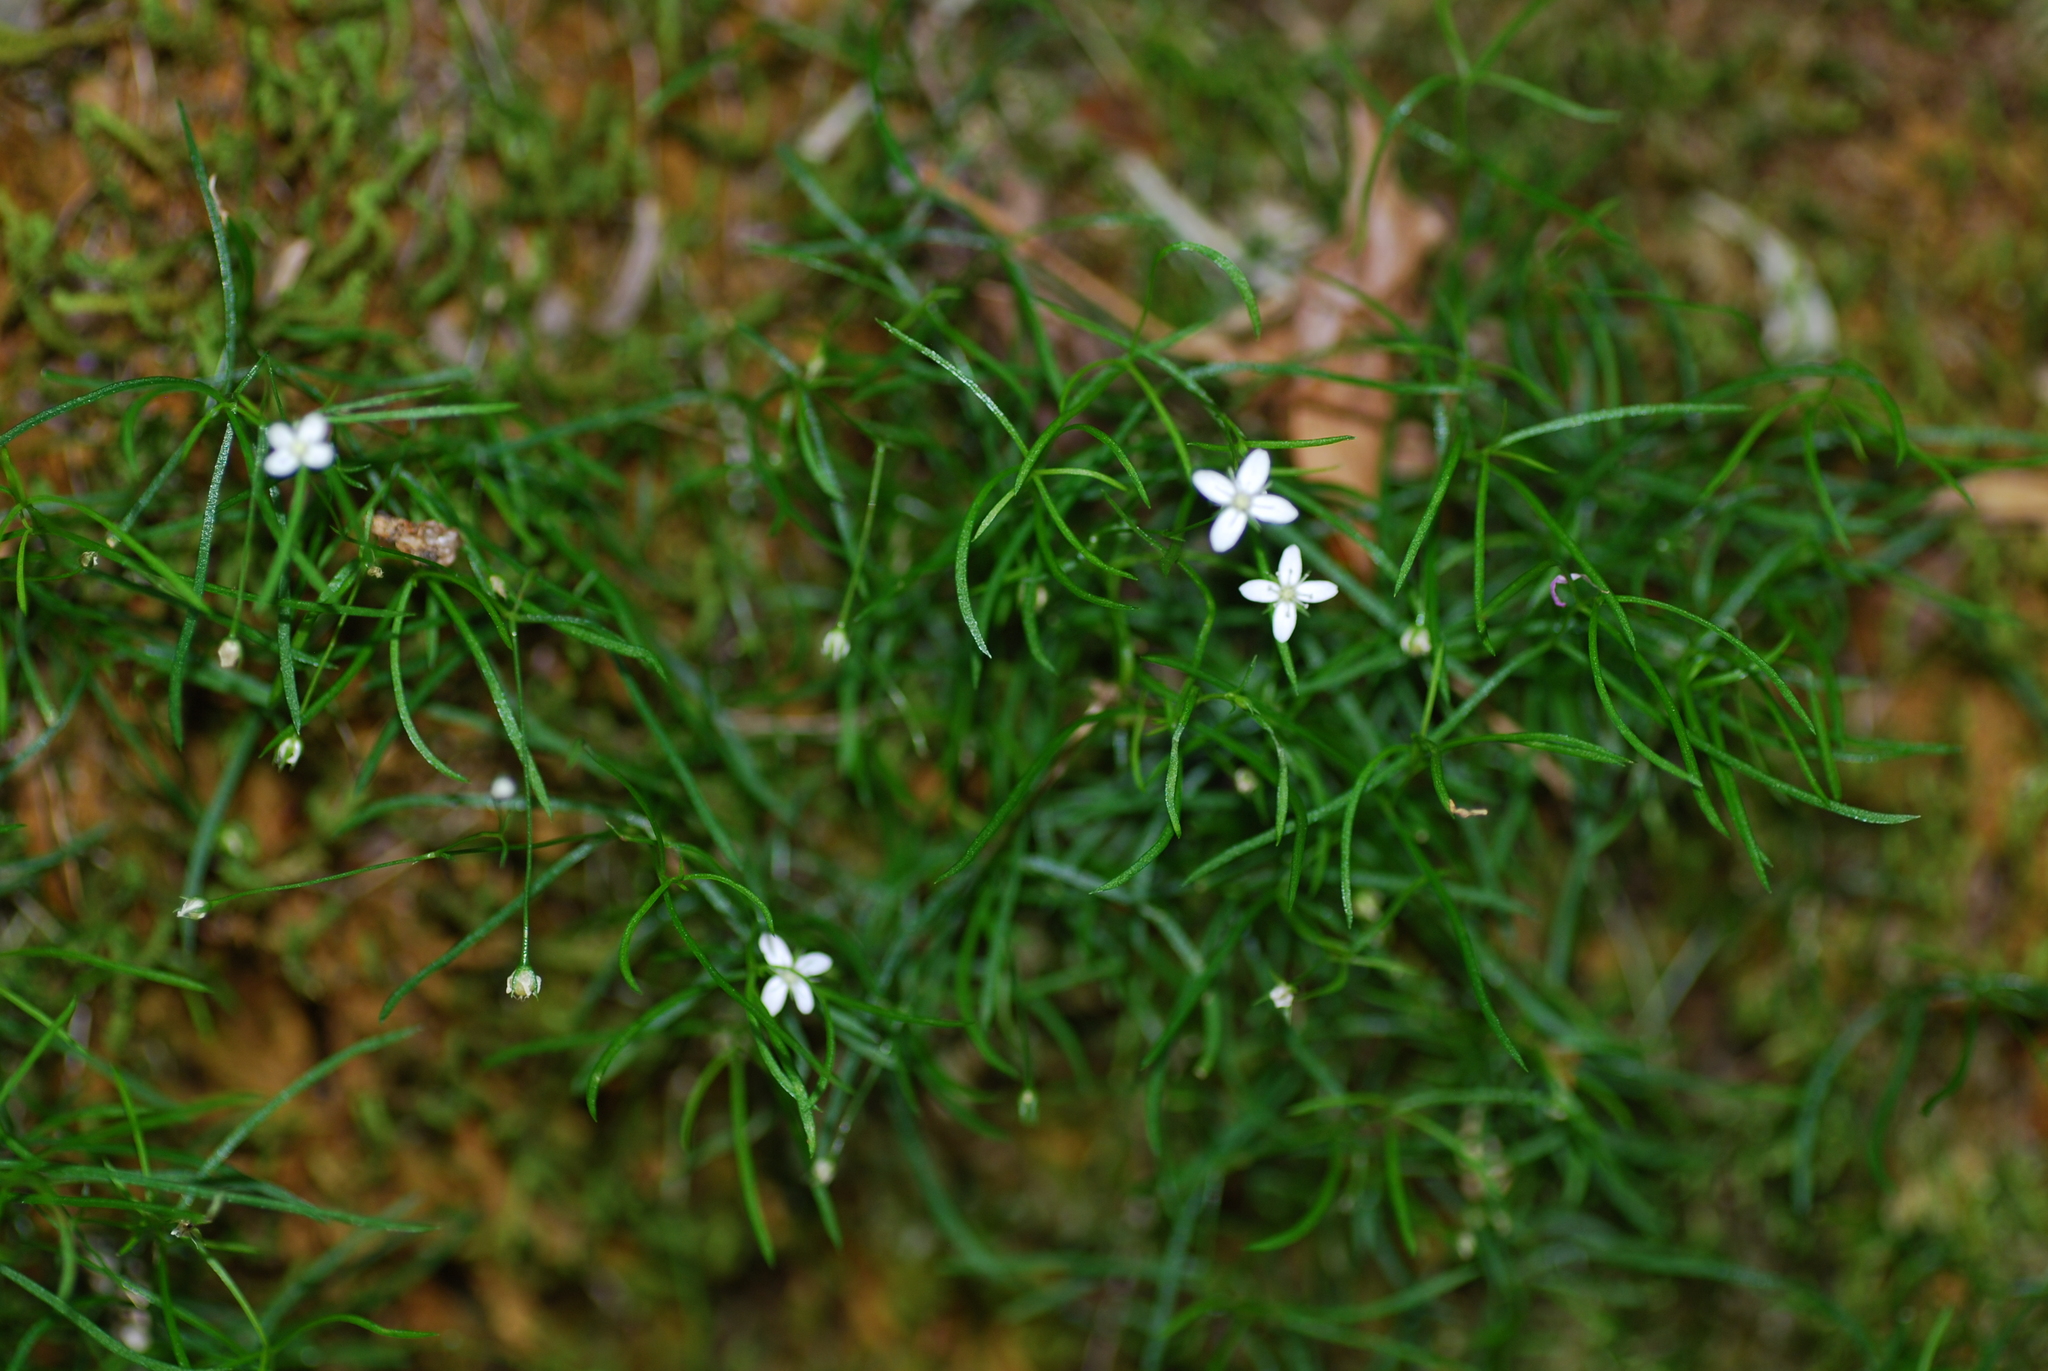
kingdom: Plantae
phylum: Tracheophyta
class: Magnoliopsida
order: Caryophyllales
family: Caryophyllaceae
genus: Moehringia
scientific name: Moehringia muscosa
